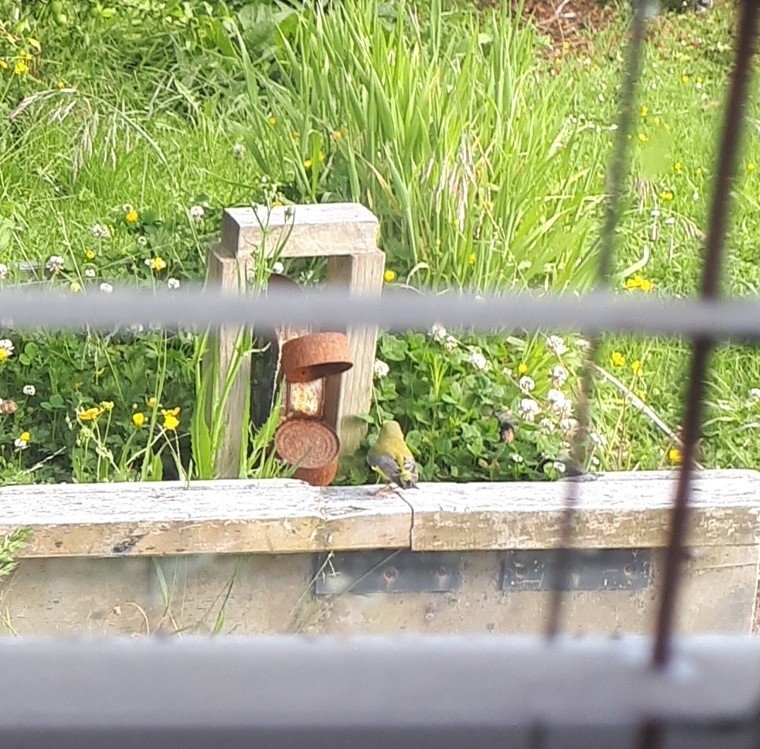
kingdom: Plantae
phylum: Tracheophyta
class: Liliopsida
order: Poales
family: Poaceae
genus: Chloris
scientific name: Chloris chloris
